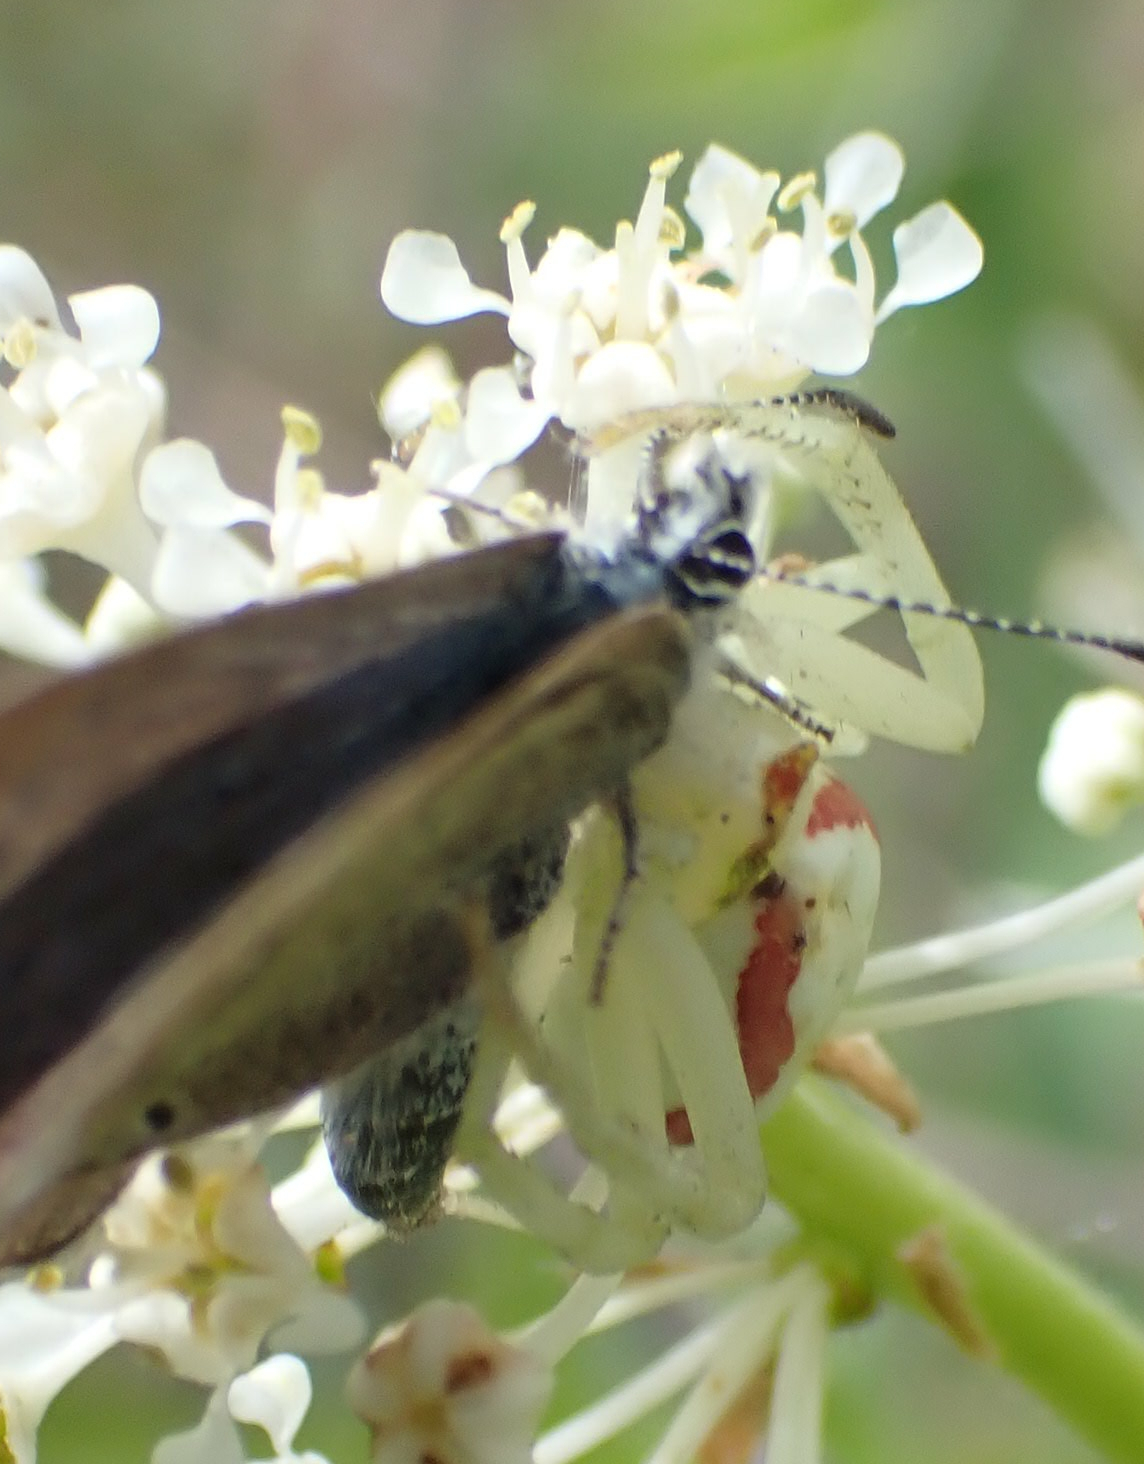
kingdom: Animalia
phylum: Arthropoda
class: Arachnida
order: Araneae
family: Thomisidae
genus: Misumena
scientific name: Misumena vatia
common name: Goldenrod crab spider
